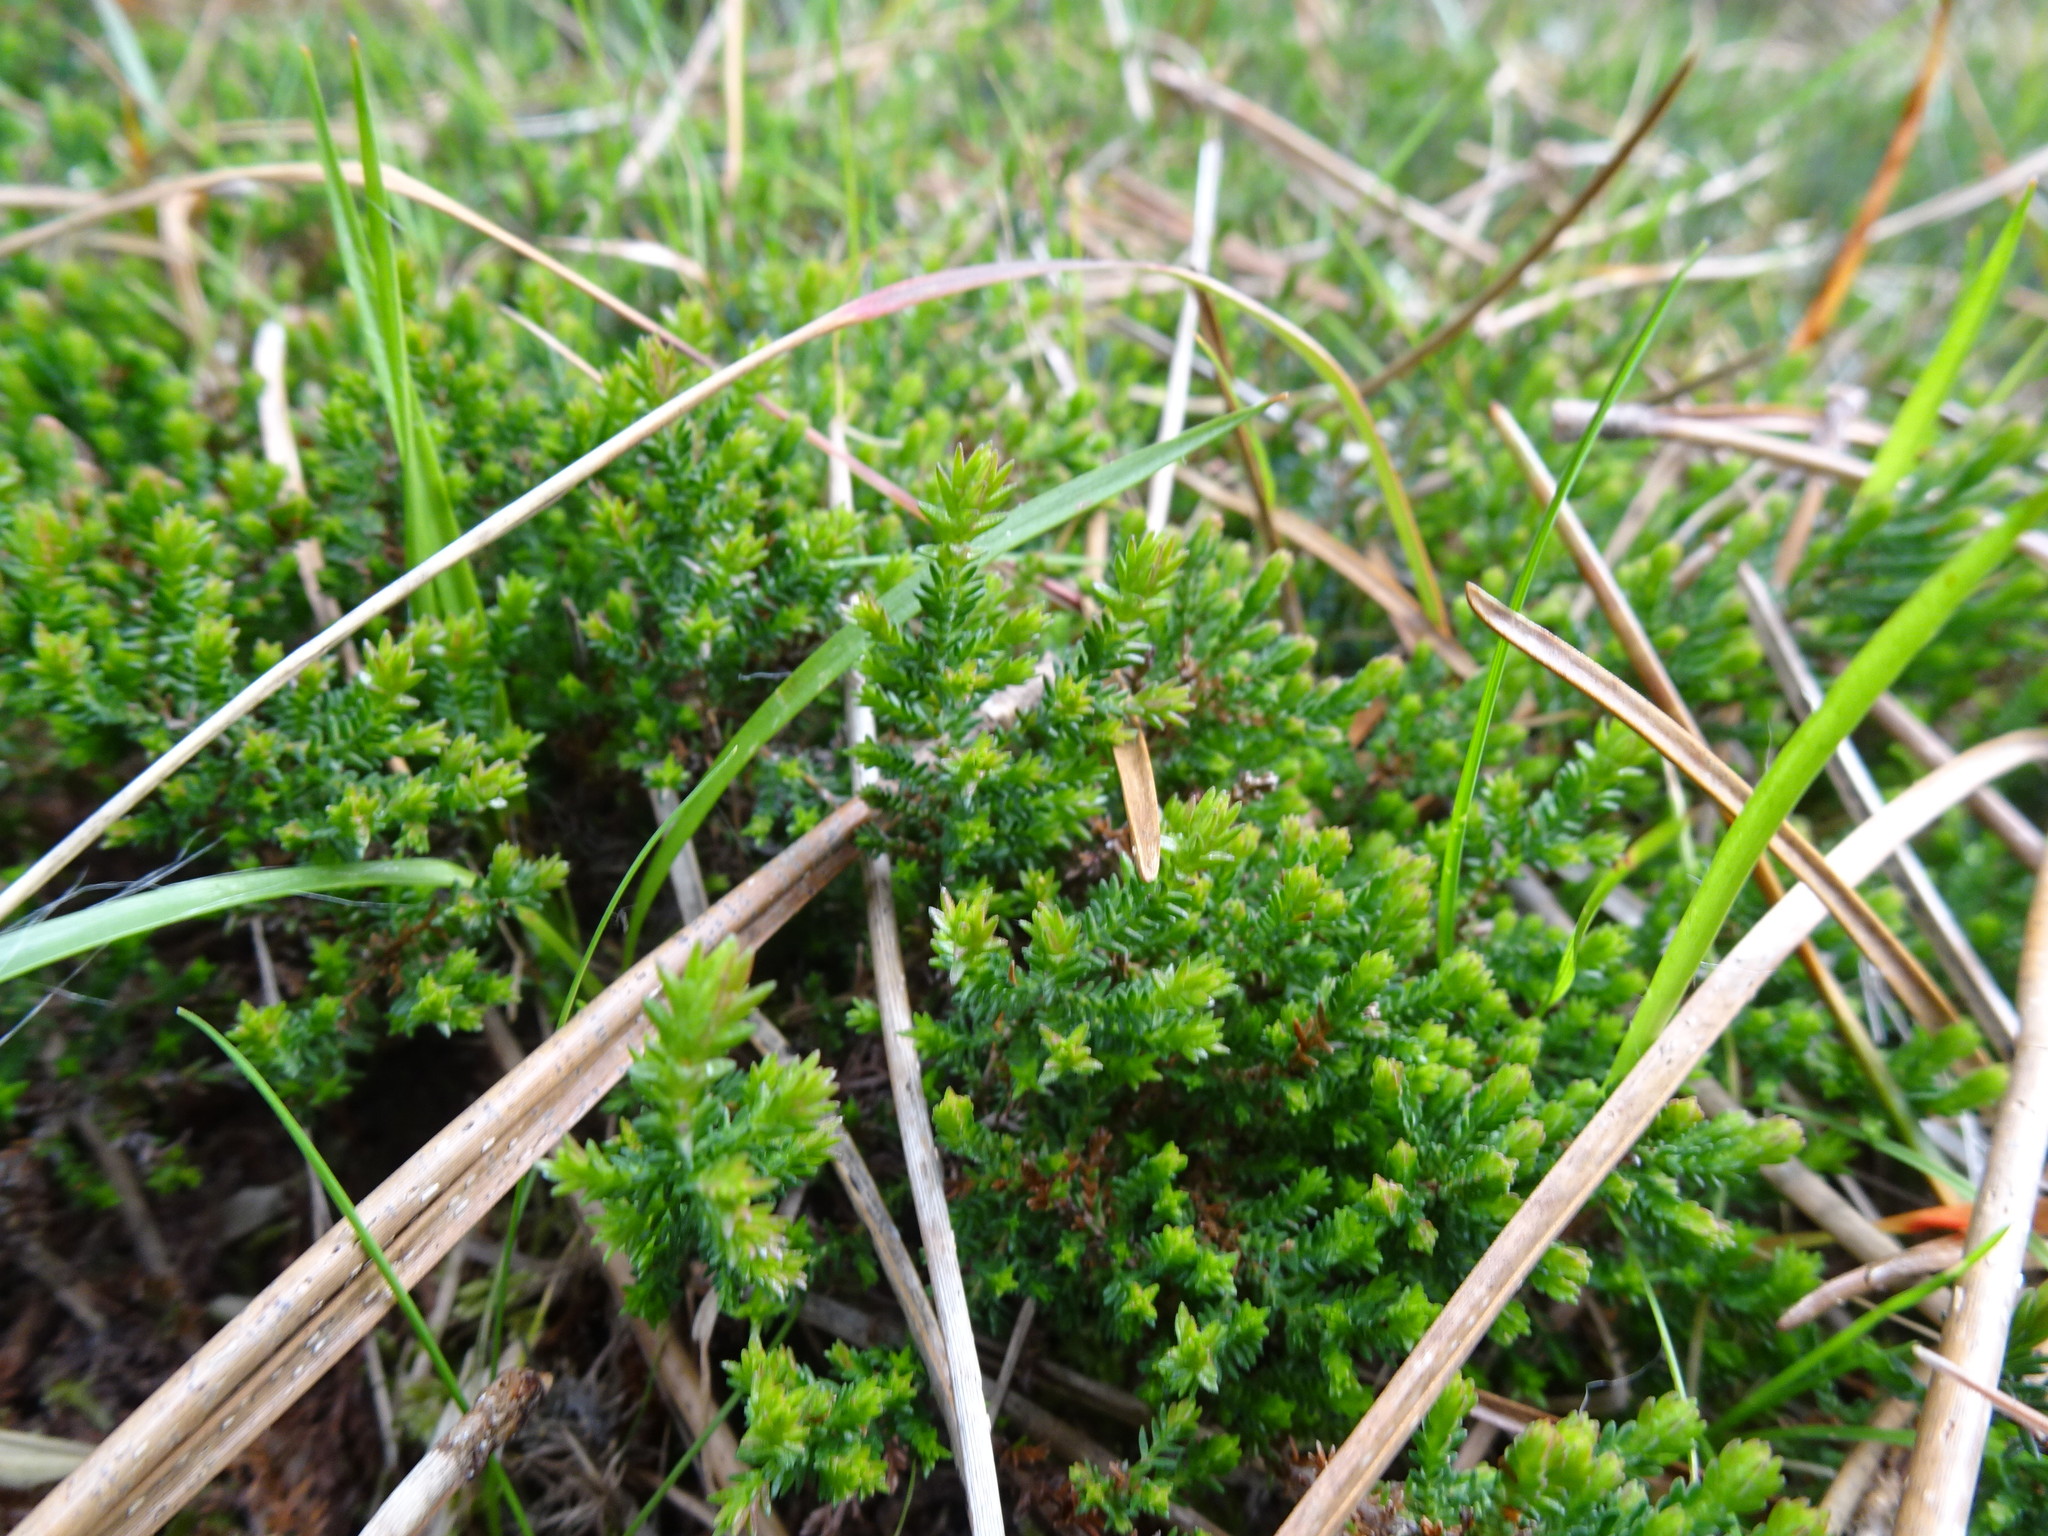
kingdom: Plantae
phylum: Tracheophyta
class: Magnoliopsida
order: Ericales
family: Ericaceae
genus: Calluna
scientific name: Calluna vulgaris
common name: Heather
